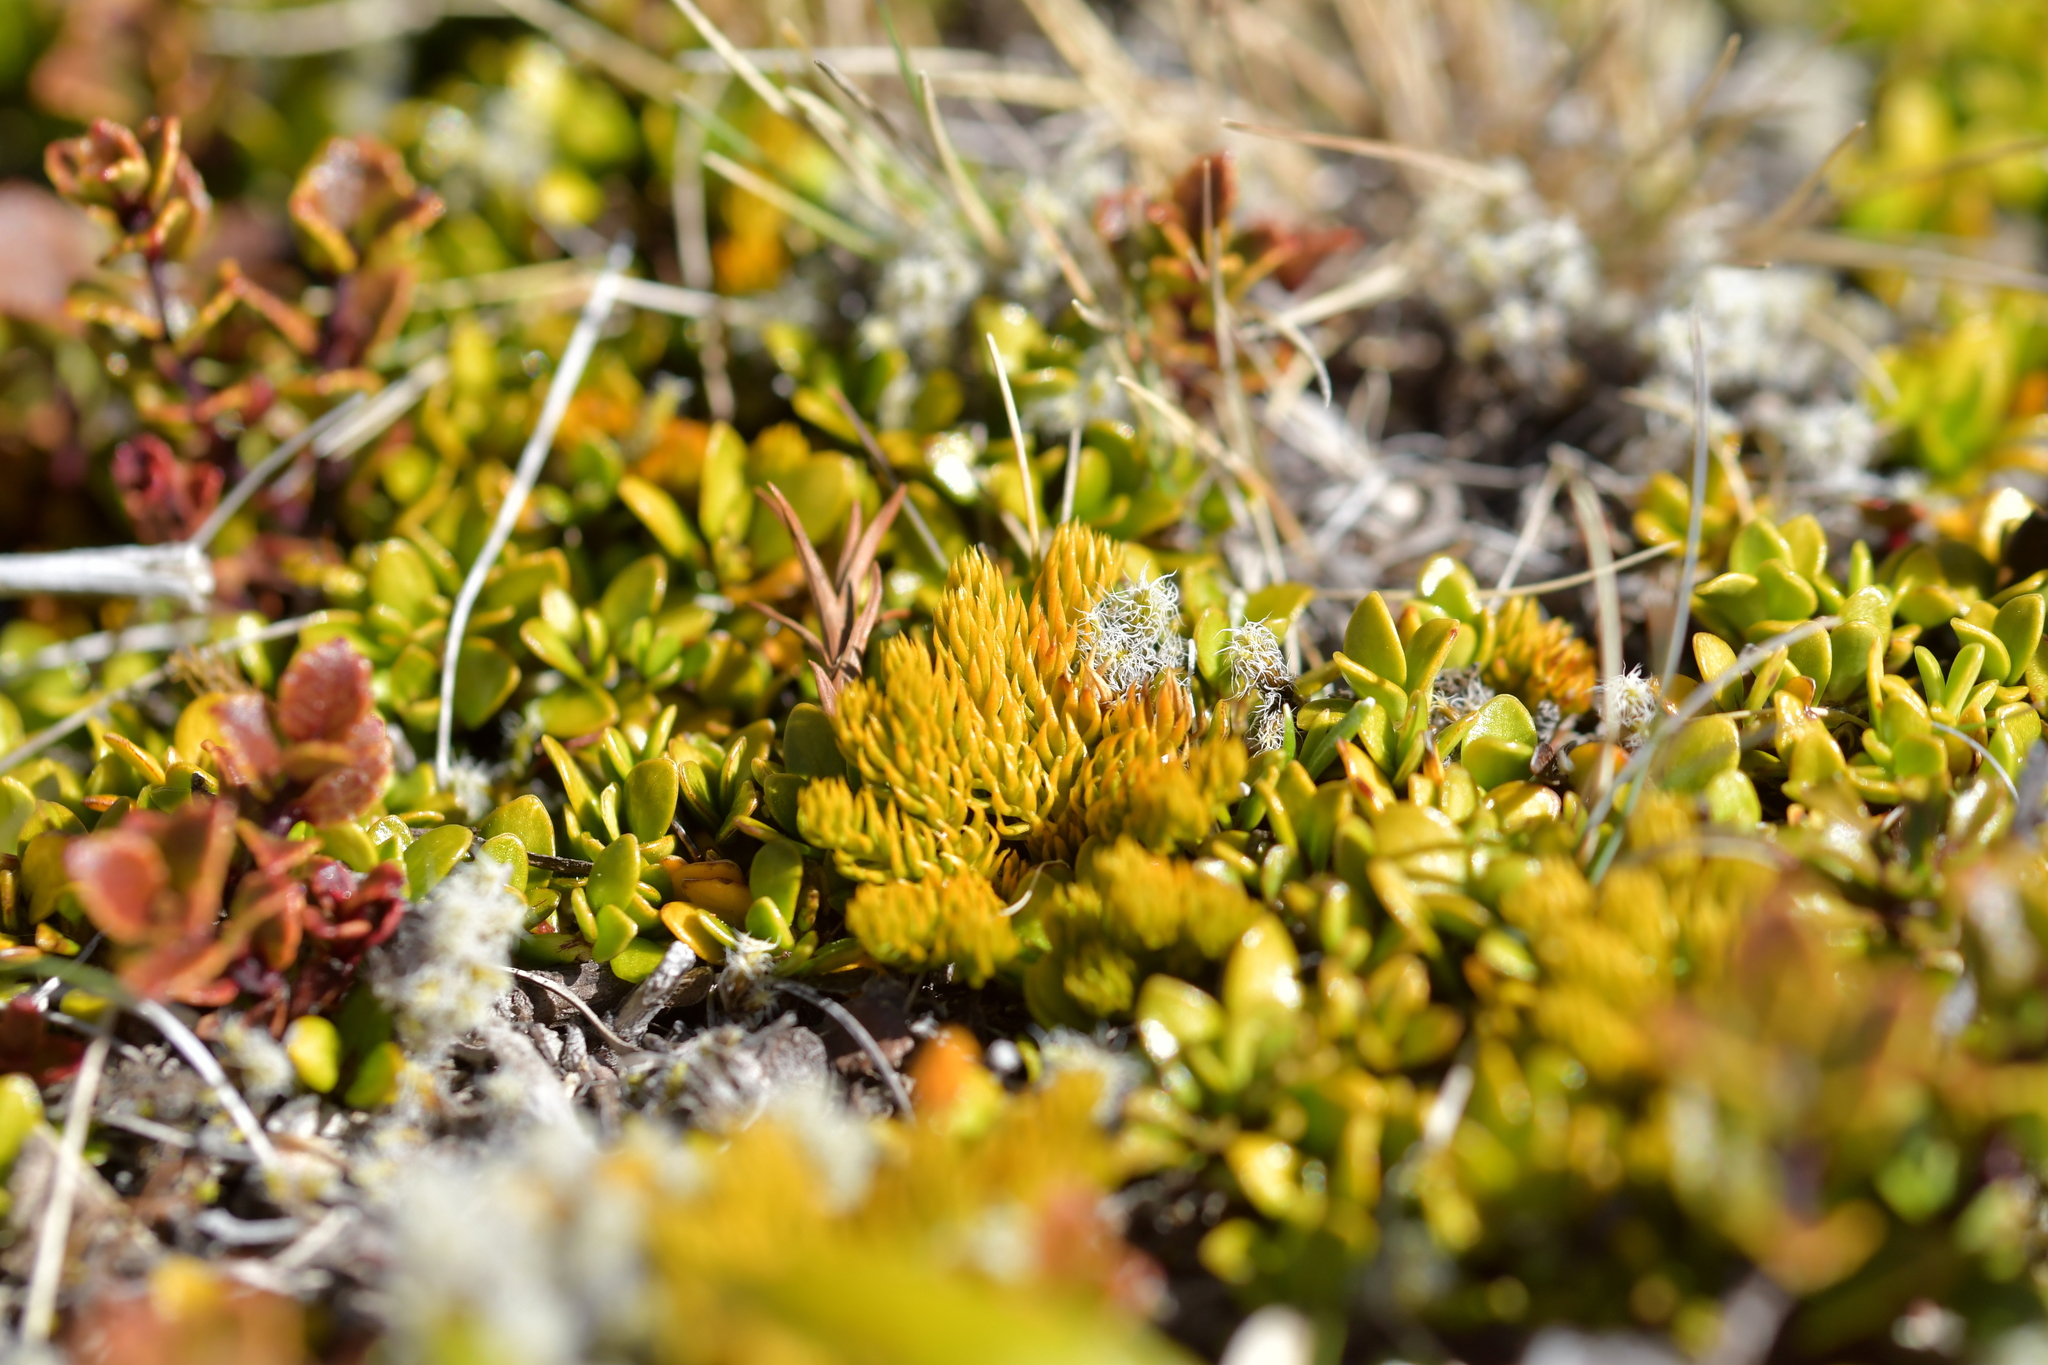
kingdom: Plantae
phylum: Tracheophyta
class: Lycopodiopsida
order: Lycopodiales
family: Lycopodiaceae
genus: Austrolycopodium
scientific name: Austrolycopodium fastigiatum
